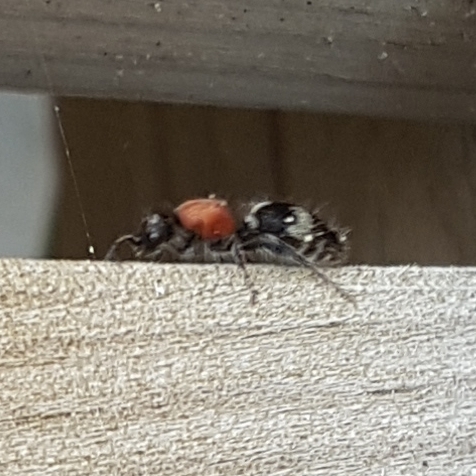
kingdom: Animalia
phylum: Arthropoda
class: Insecta
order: Hymenoptera
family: Mutillidae
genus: Dasylabris
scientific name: Dasylabris maura
